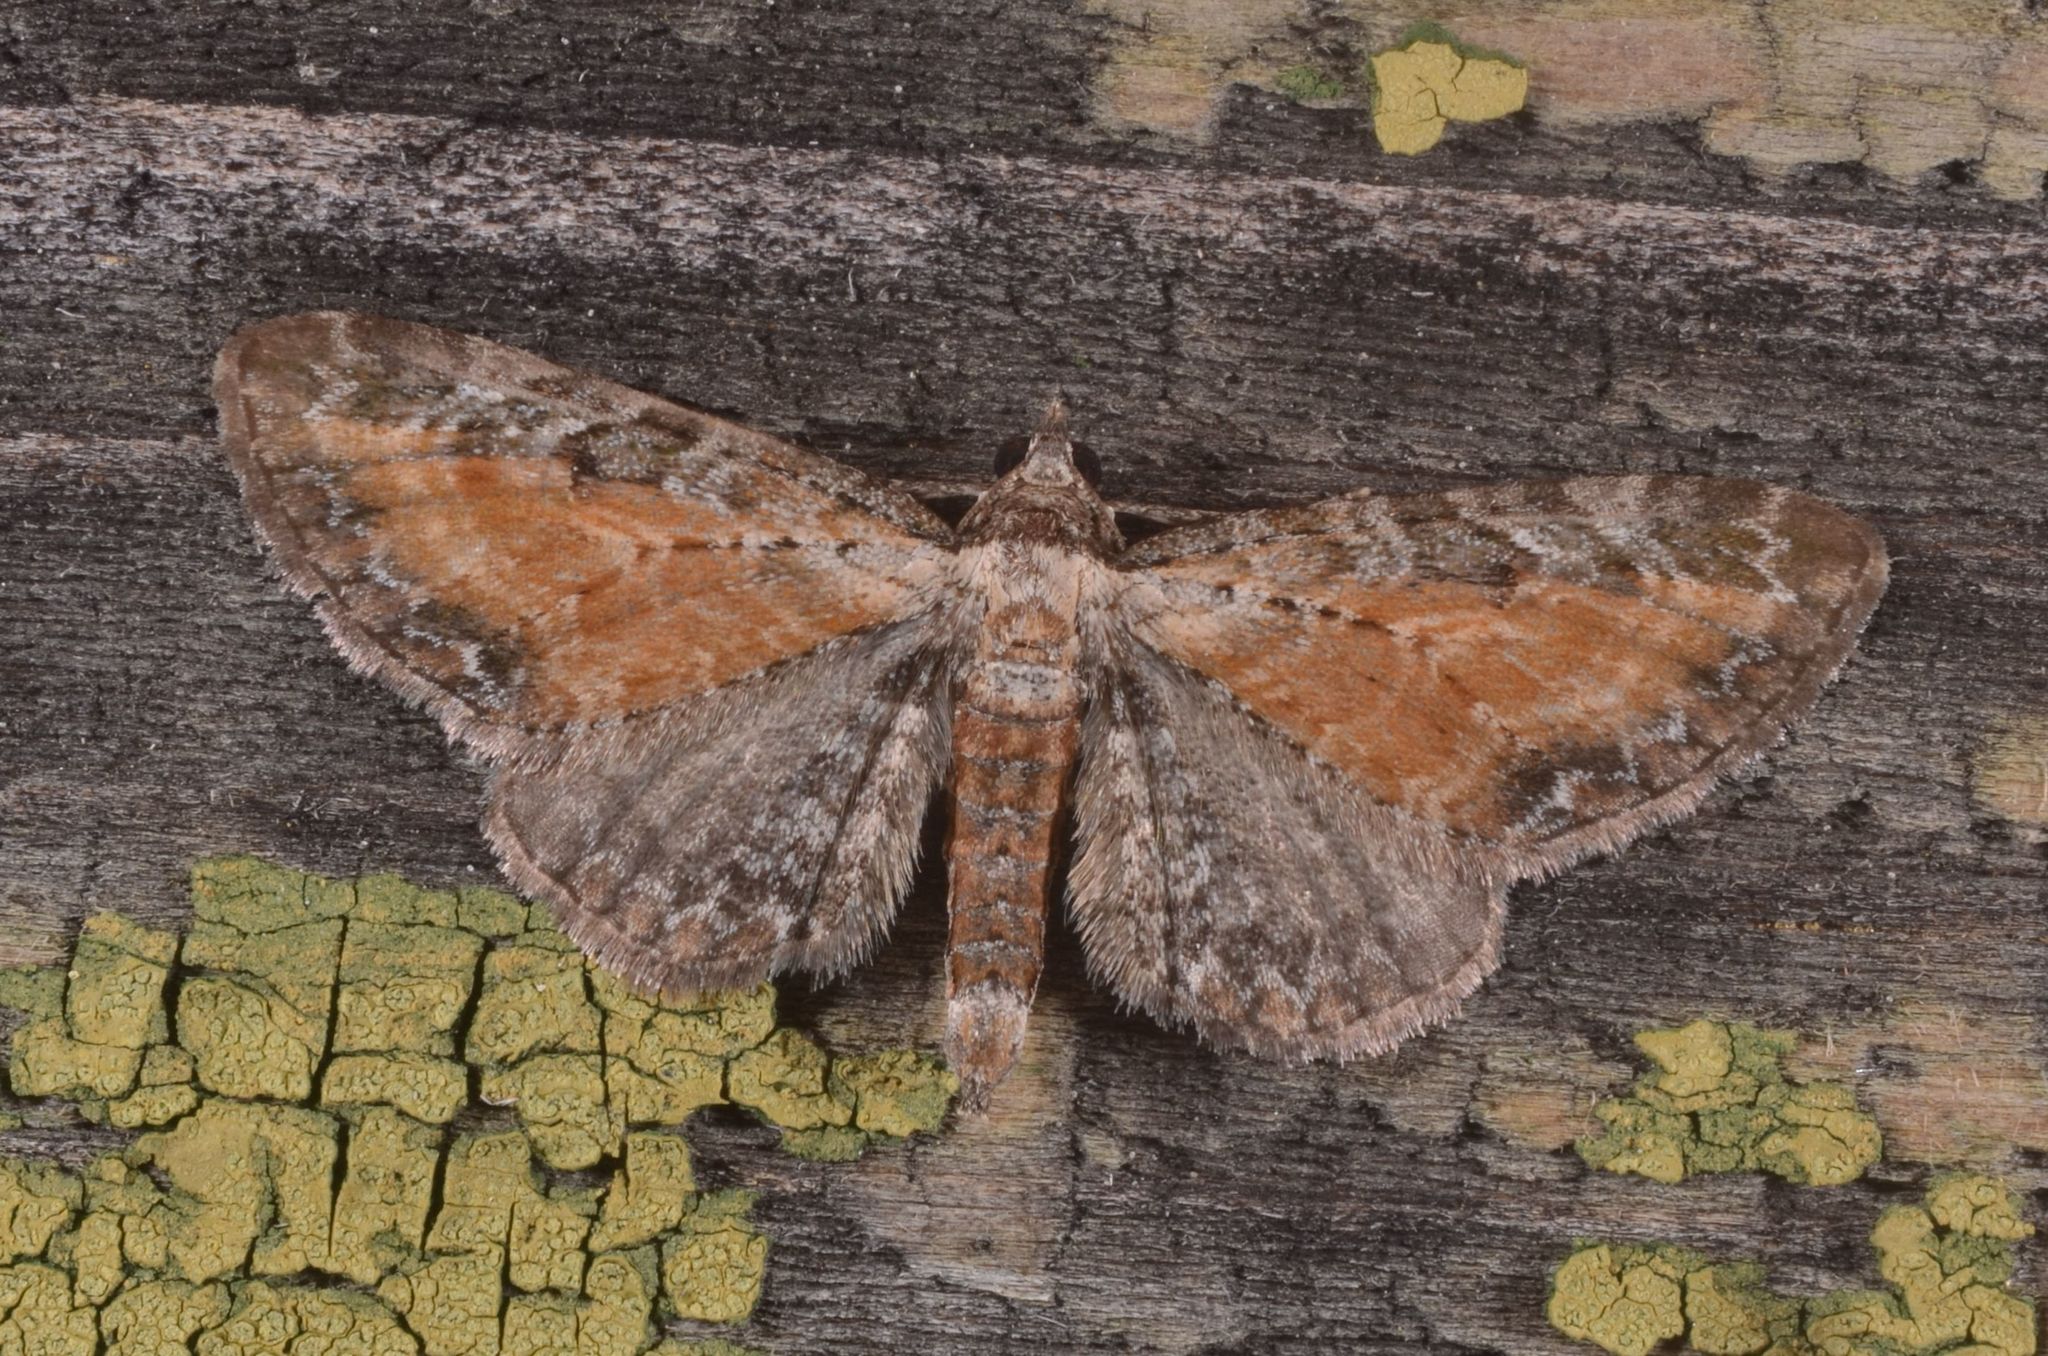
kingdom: Animalia
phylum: Arthropoda
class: Insecta
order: Lepidoptera
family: Geometridae
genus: Eupithecia
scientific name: Eupithecia icterata
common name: Tawny speckled pug
